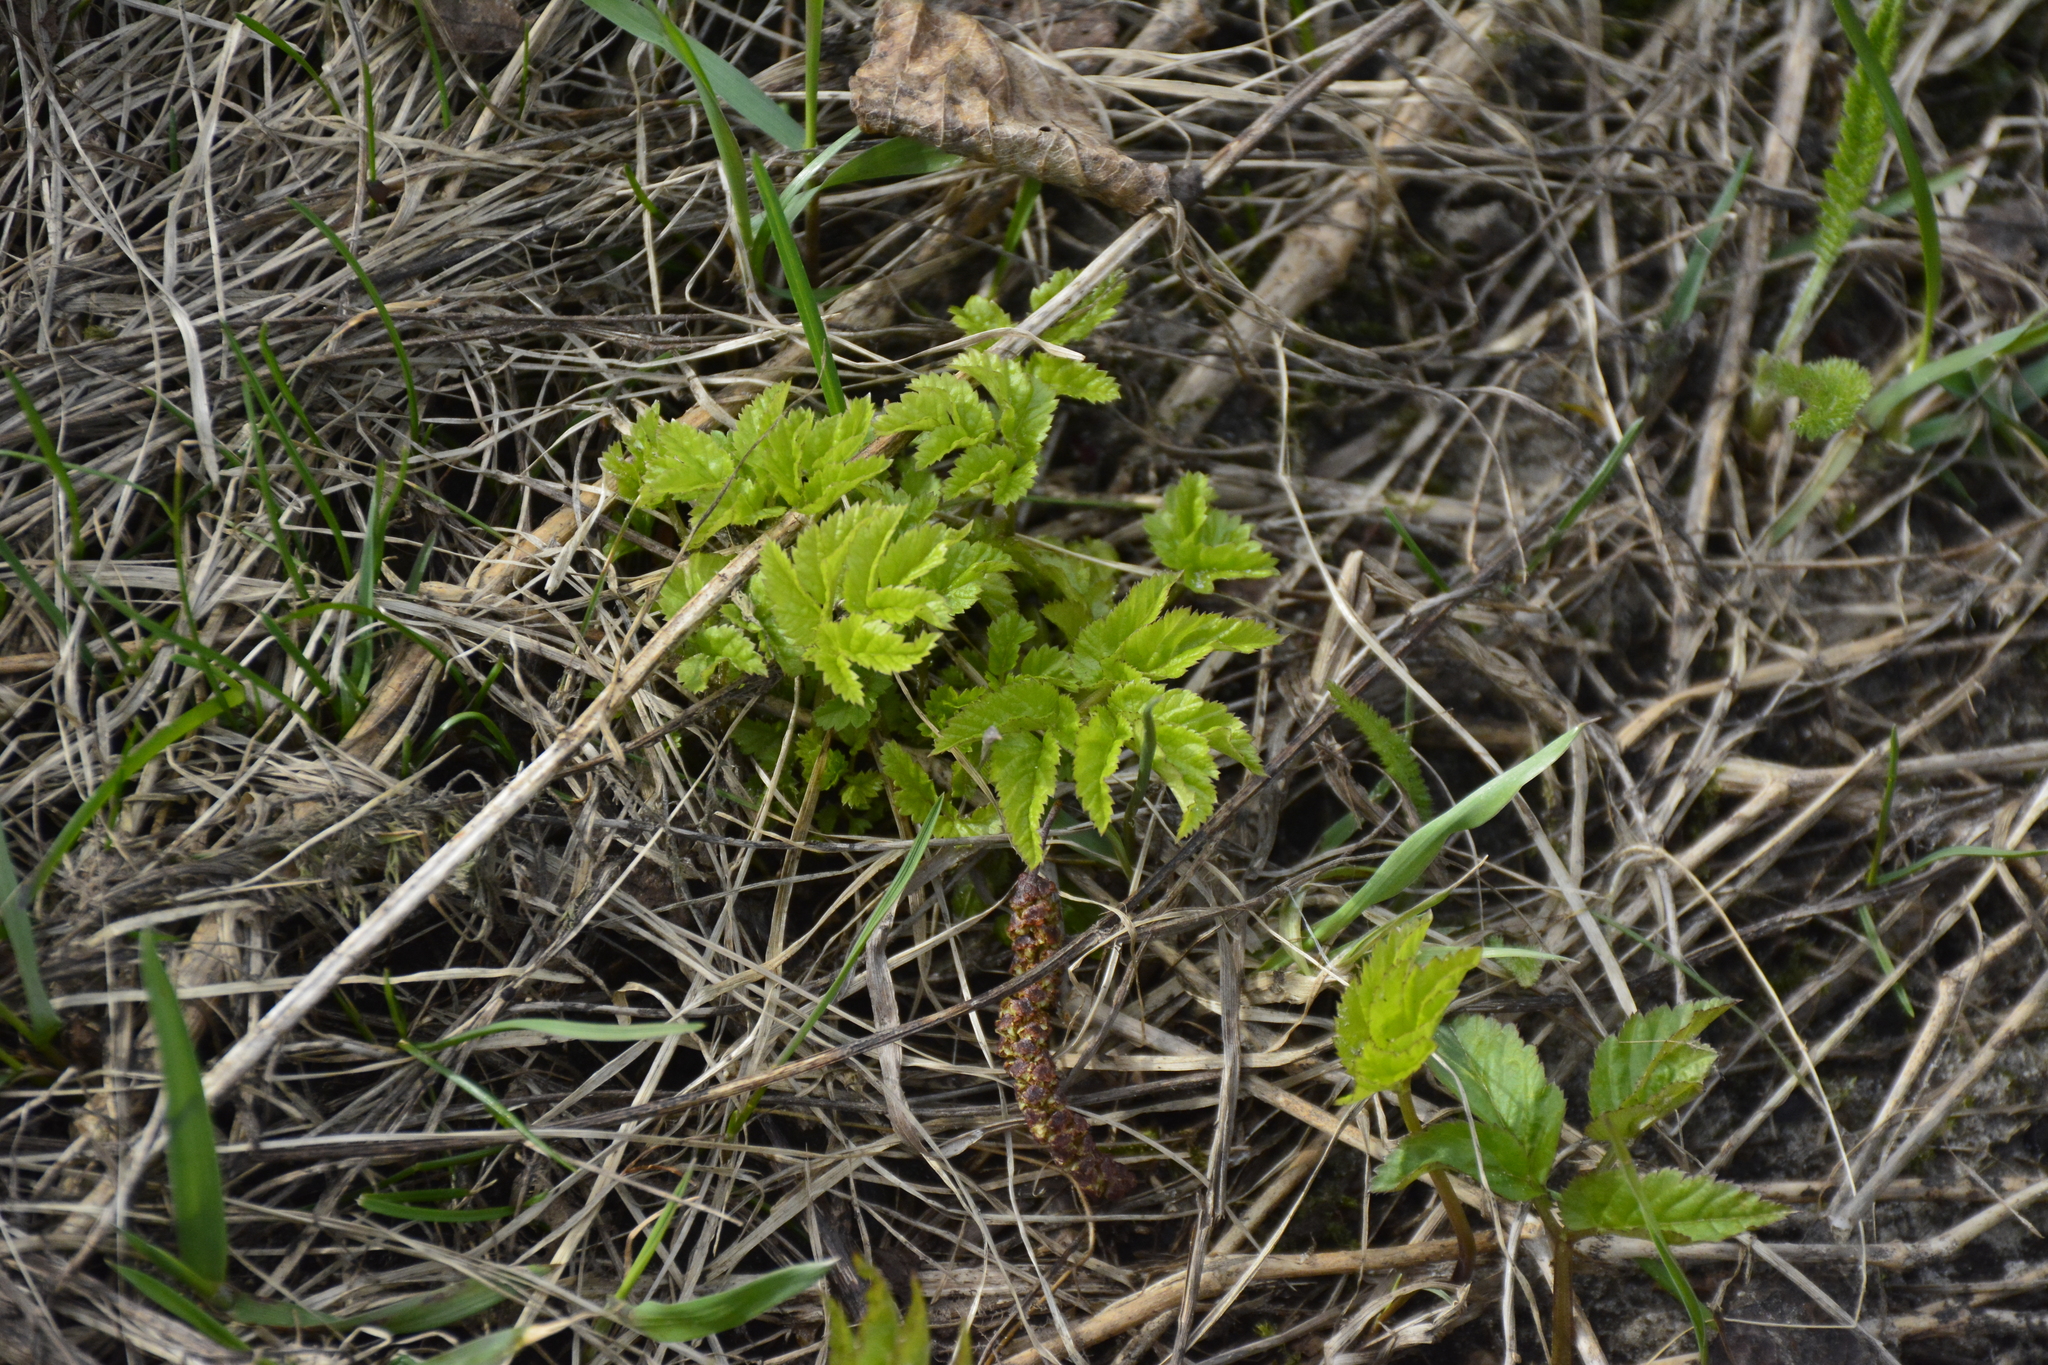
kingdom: Plantae
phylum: Tracheophyta
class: Magnoliopsida
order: Apiales
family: Apiaceae
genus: Aegopodium
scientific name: Aegopodium podagraria
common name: Ground-elder
